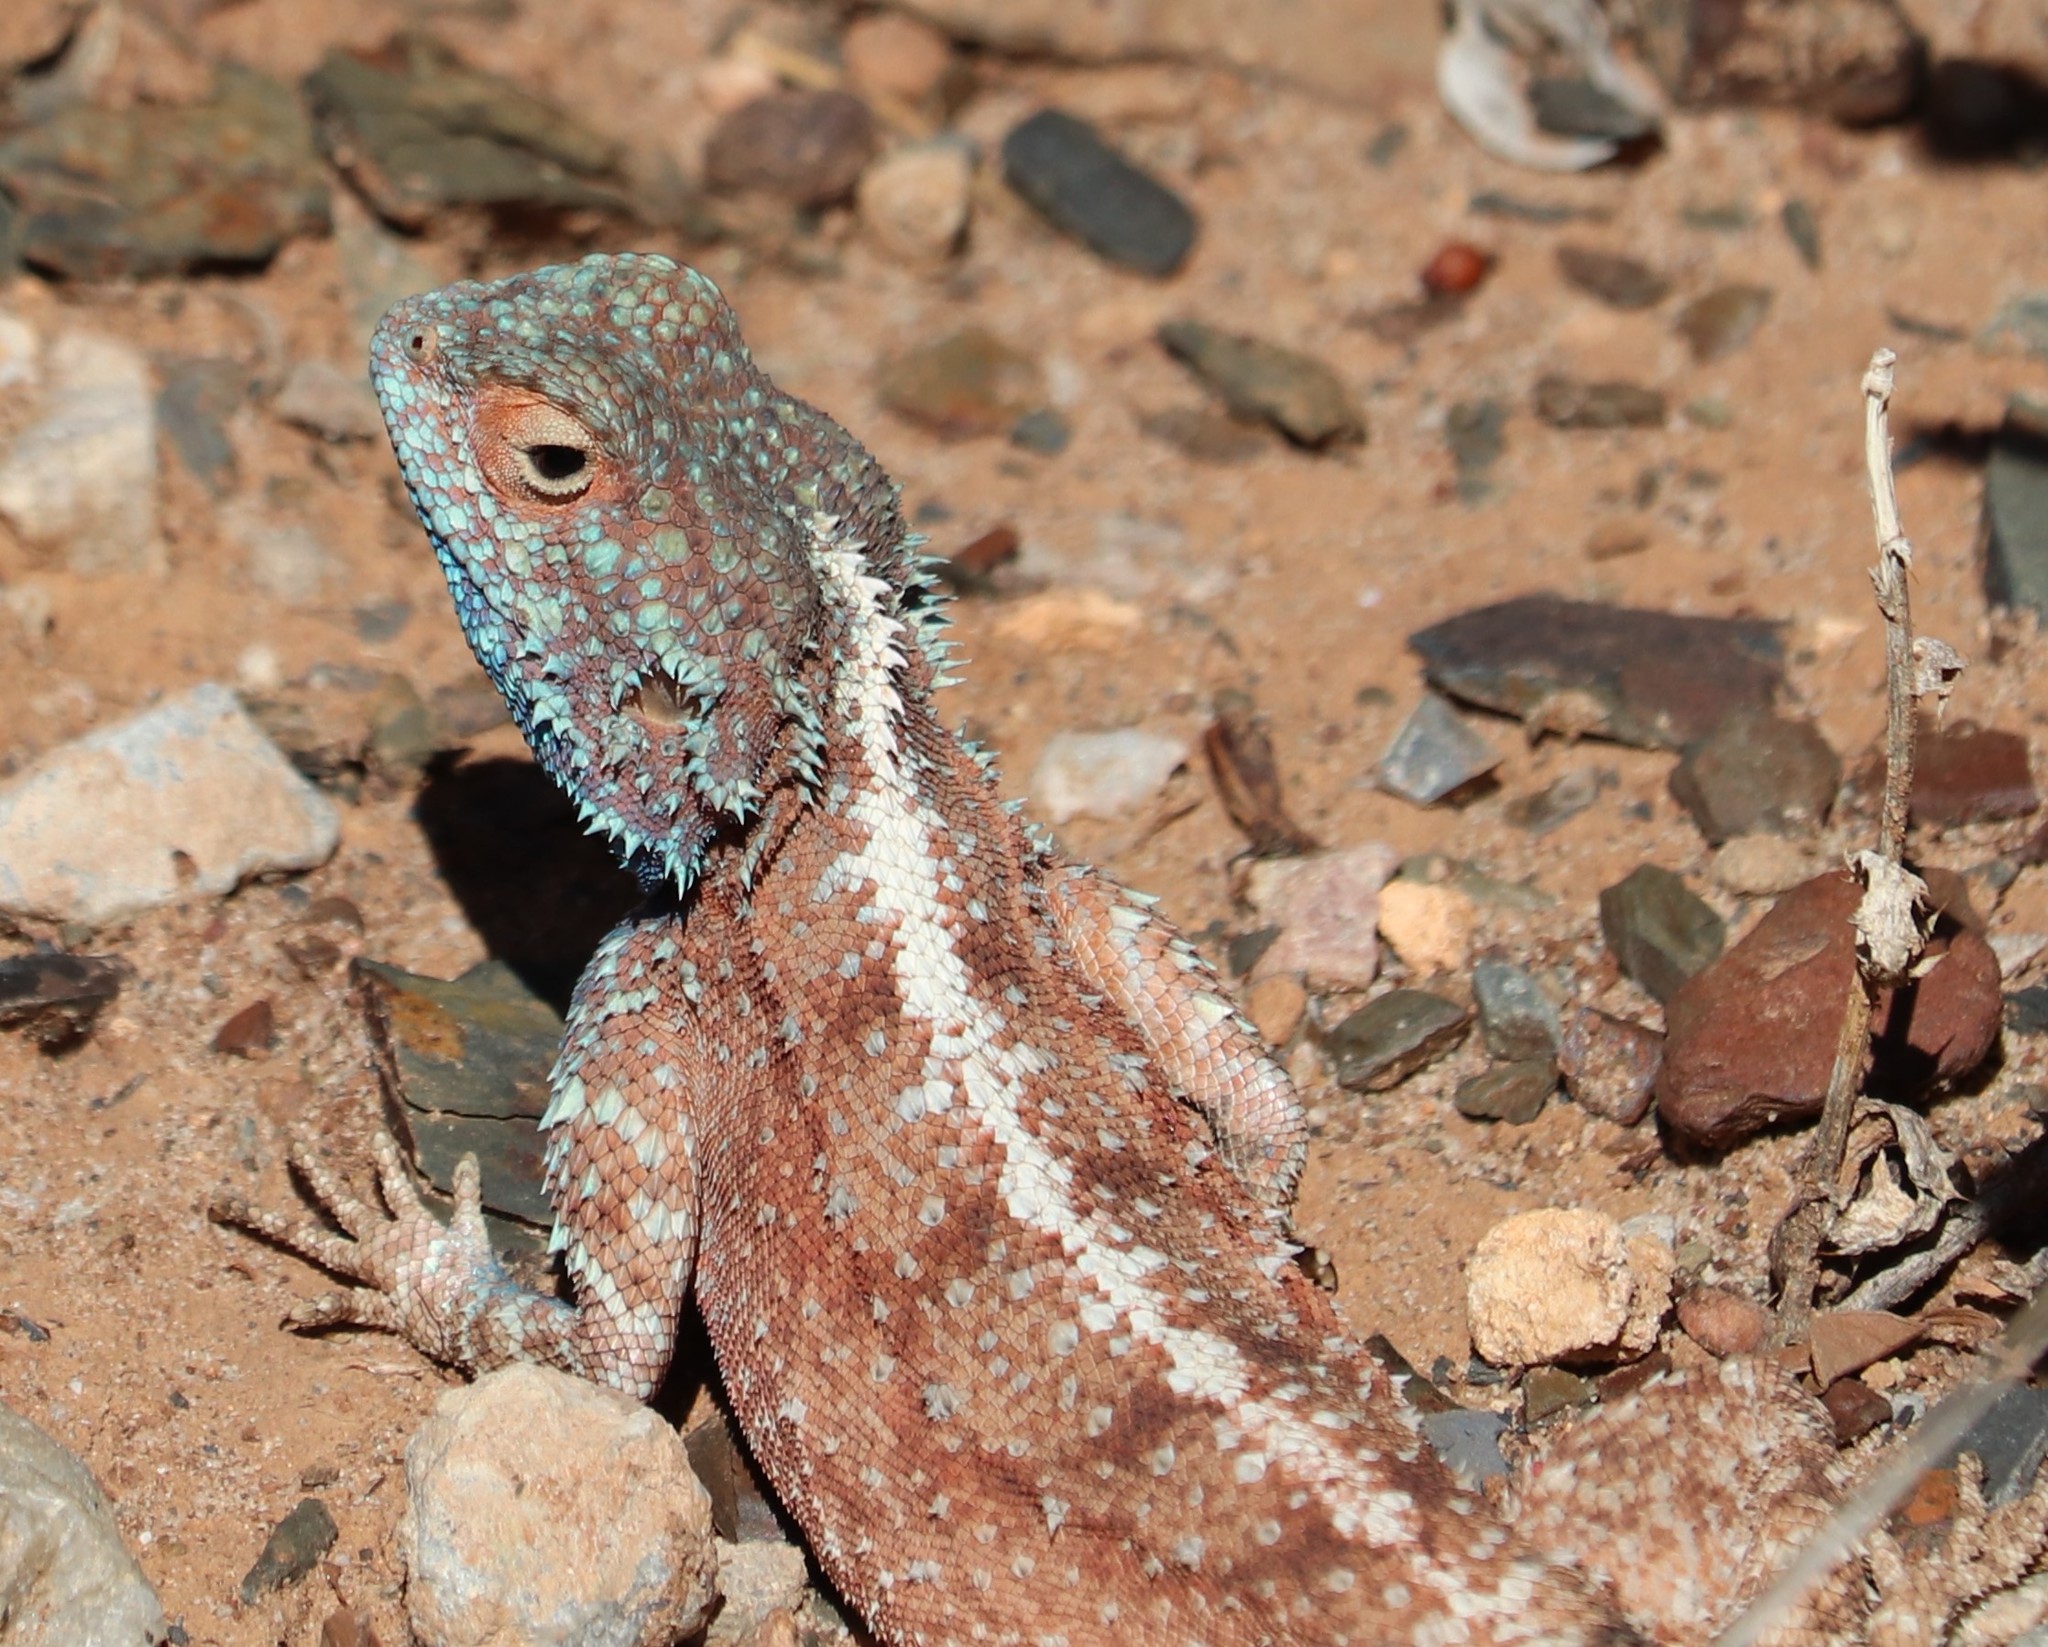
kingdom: Animalia
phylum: Chordata
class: Squamata
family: Agamidae
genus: Agama
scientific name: Agama atra
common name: Southern african rock agama
